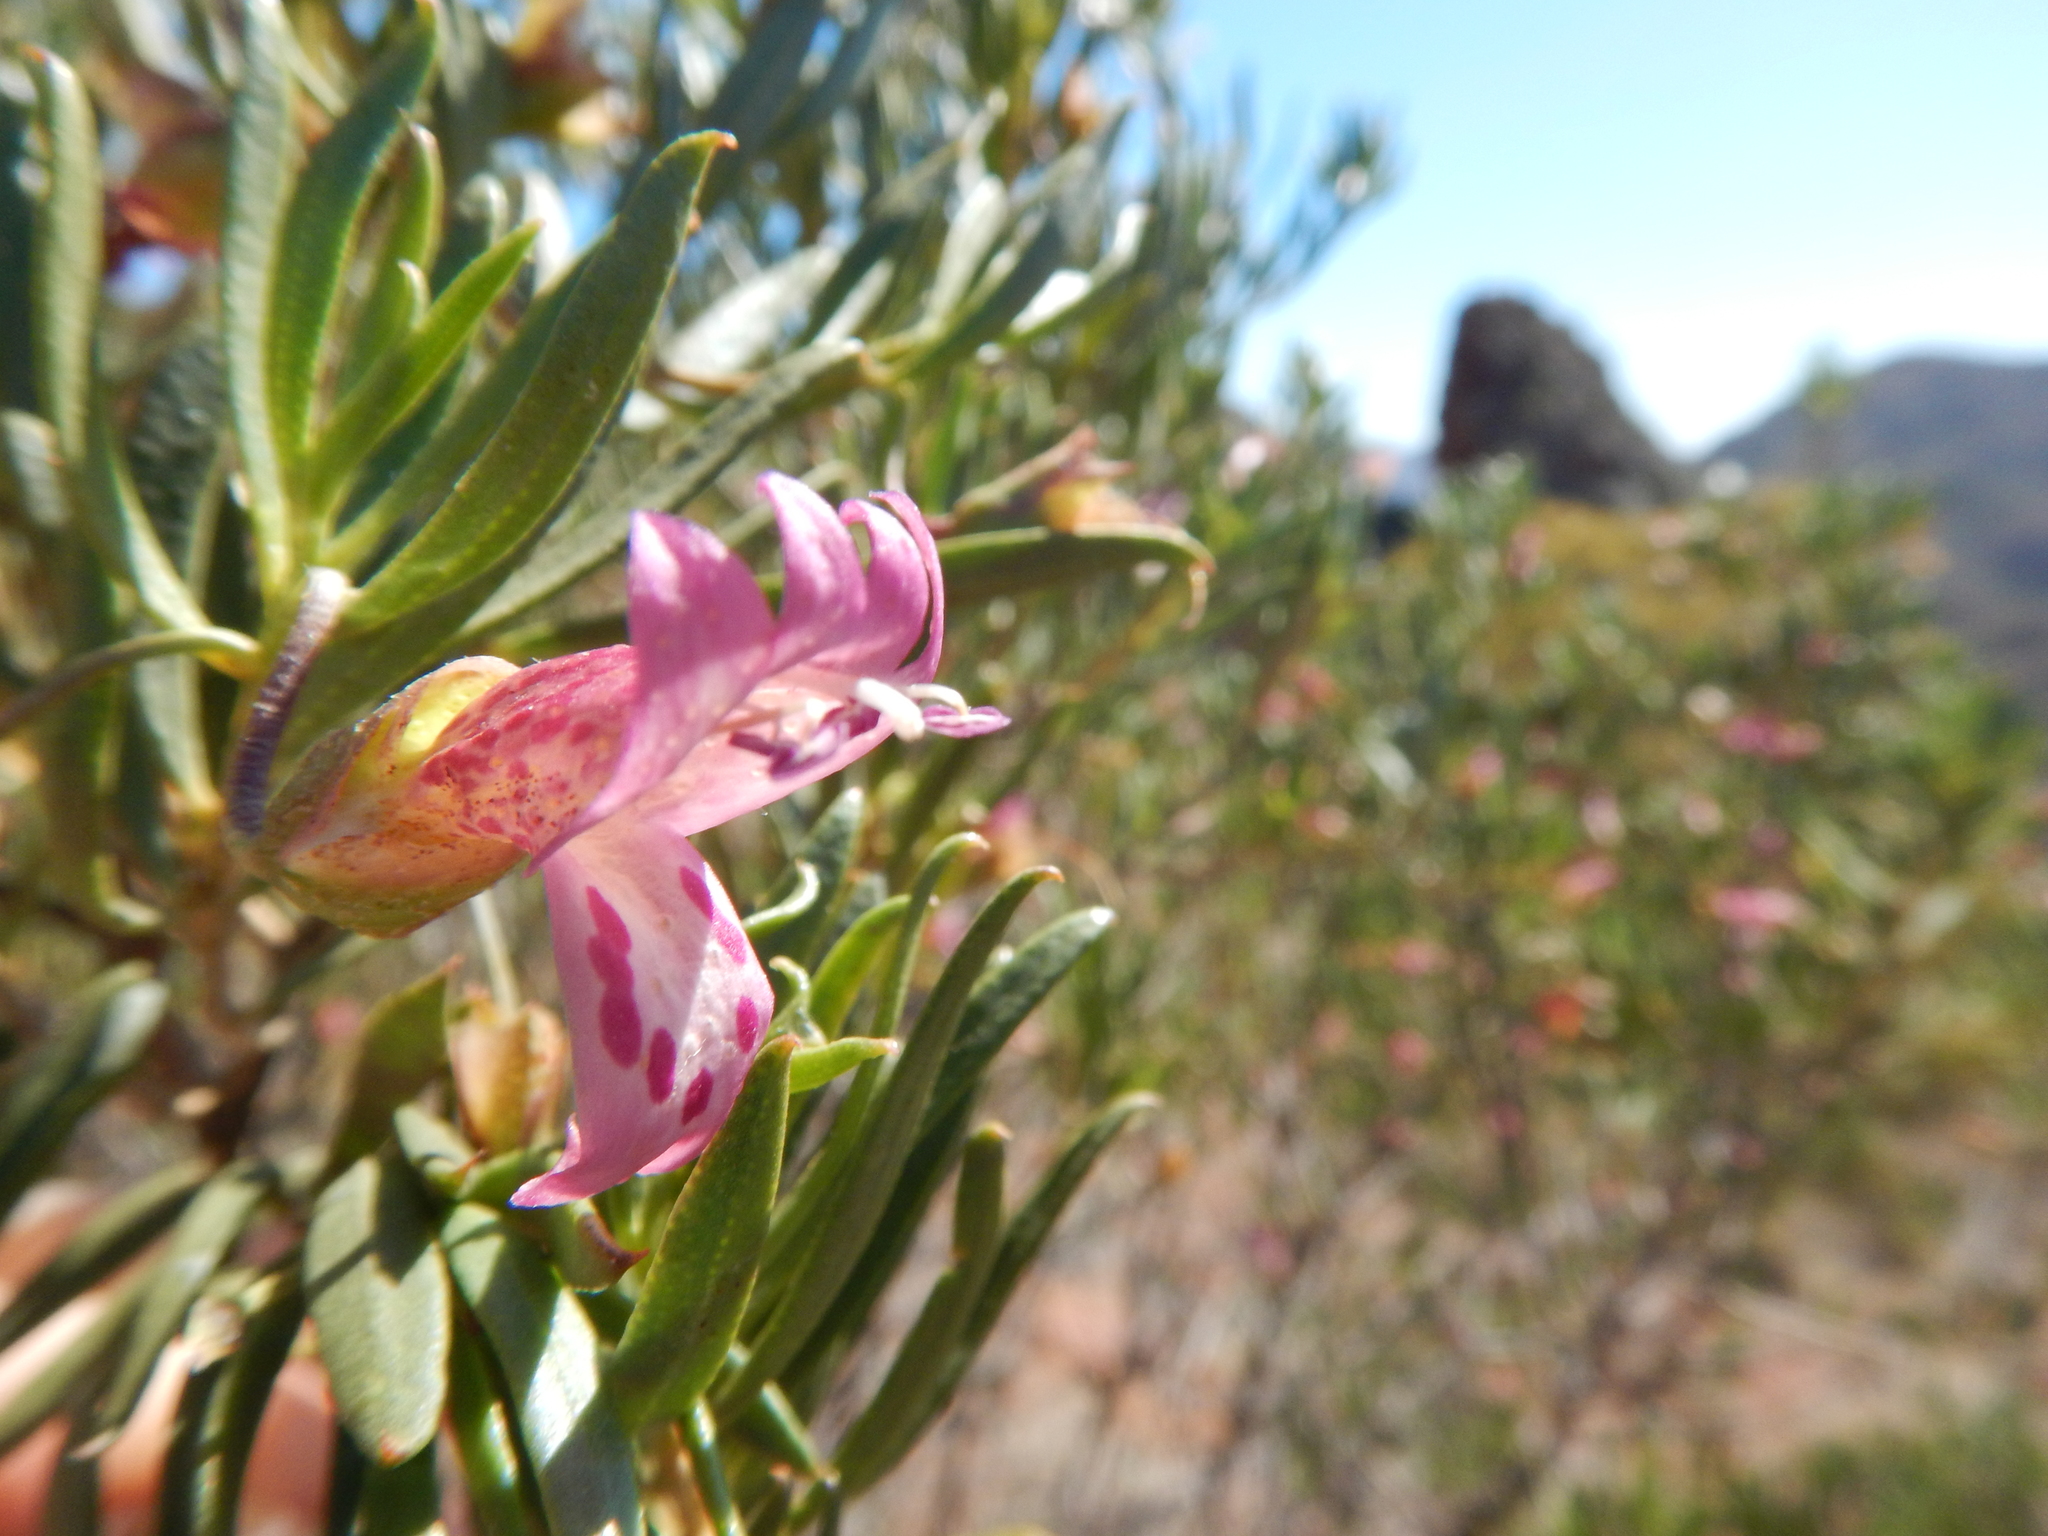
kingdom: Plantae
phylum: Tracheophyta
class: Magnoliopsida
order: Lamiales
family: Scrophulariaceae
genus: Eremophila
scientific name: Eremophila alternifolia
